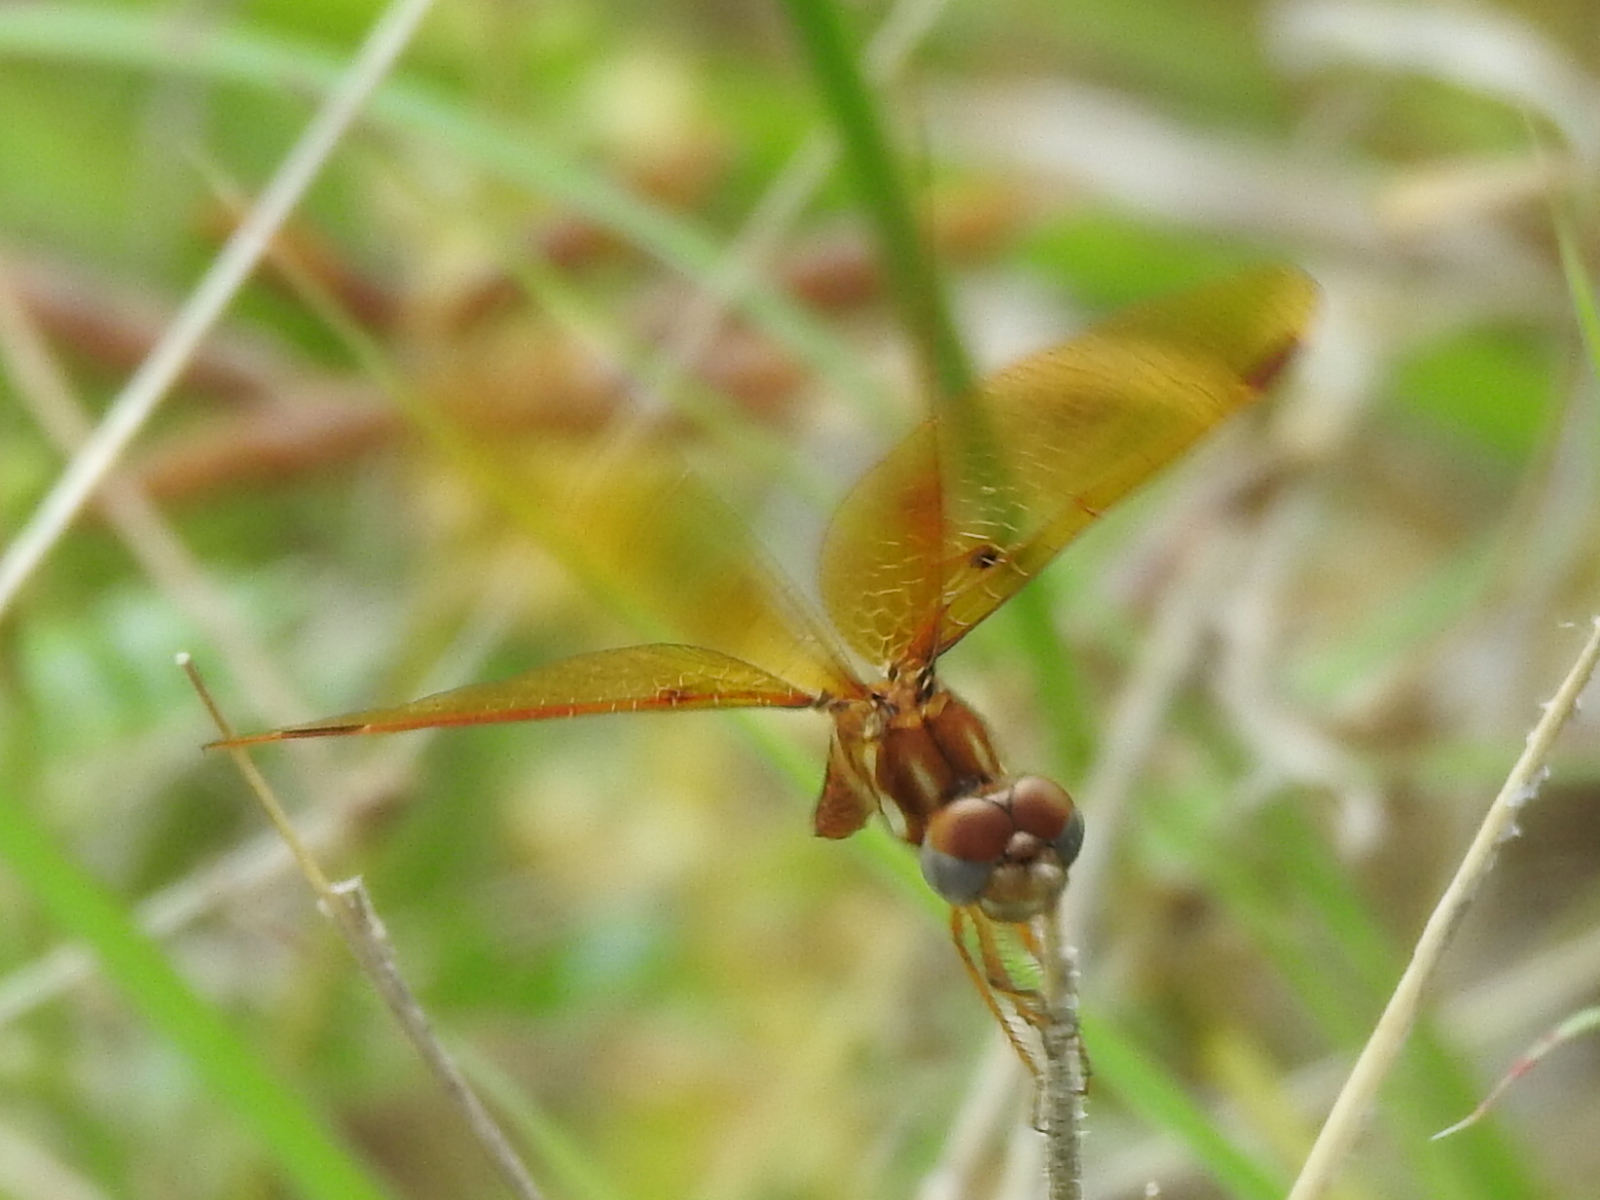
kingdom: Animalia
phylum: Arthropoda
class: Insecta
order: Odonata
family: Libellulidae
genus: Perithemis
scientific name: Perithemis tenera
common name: Eastern amberwing
